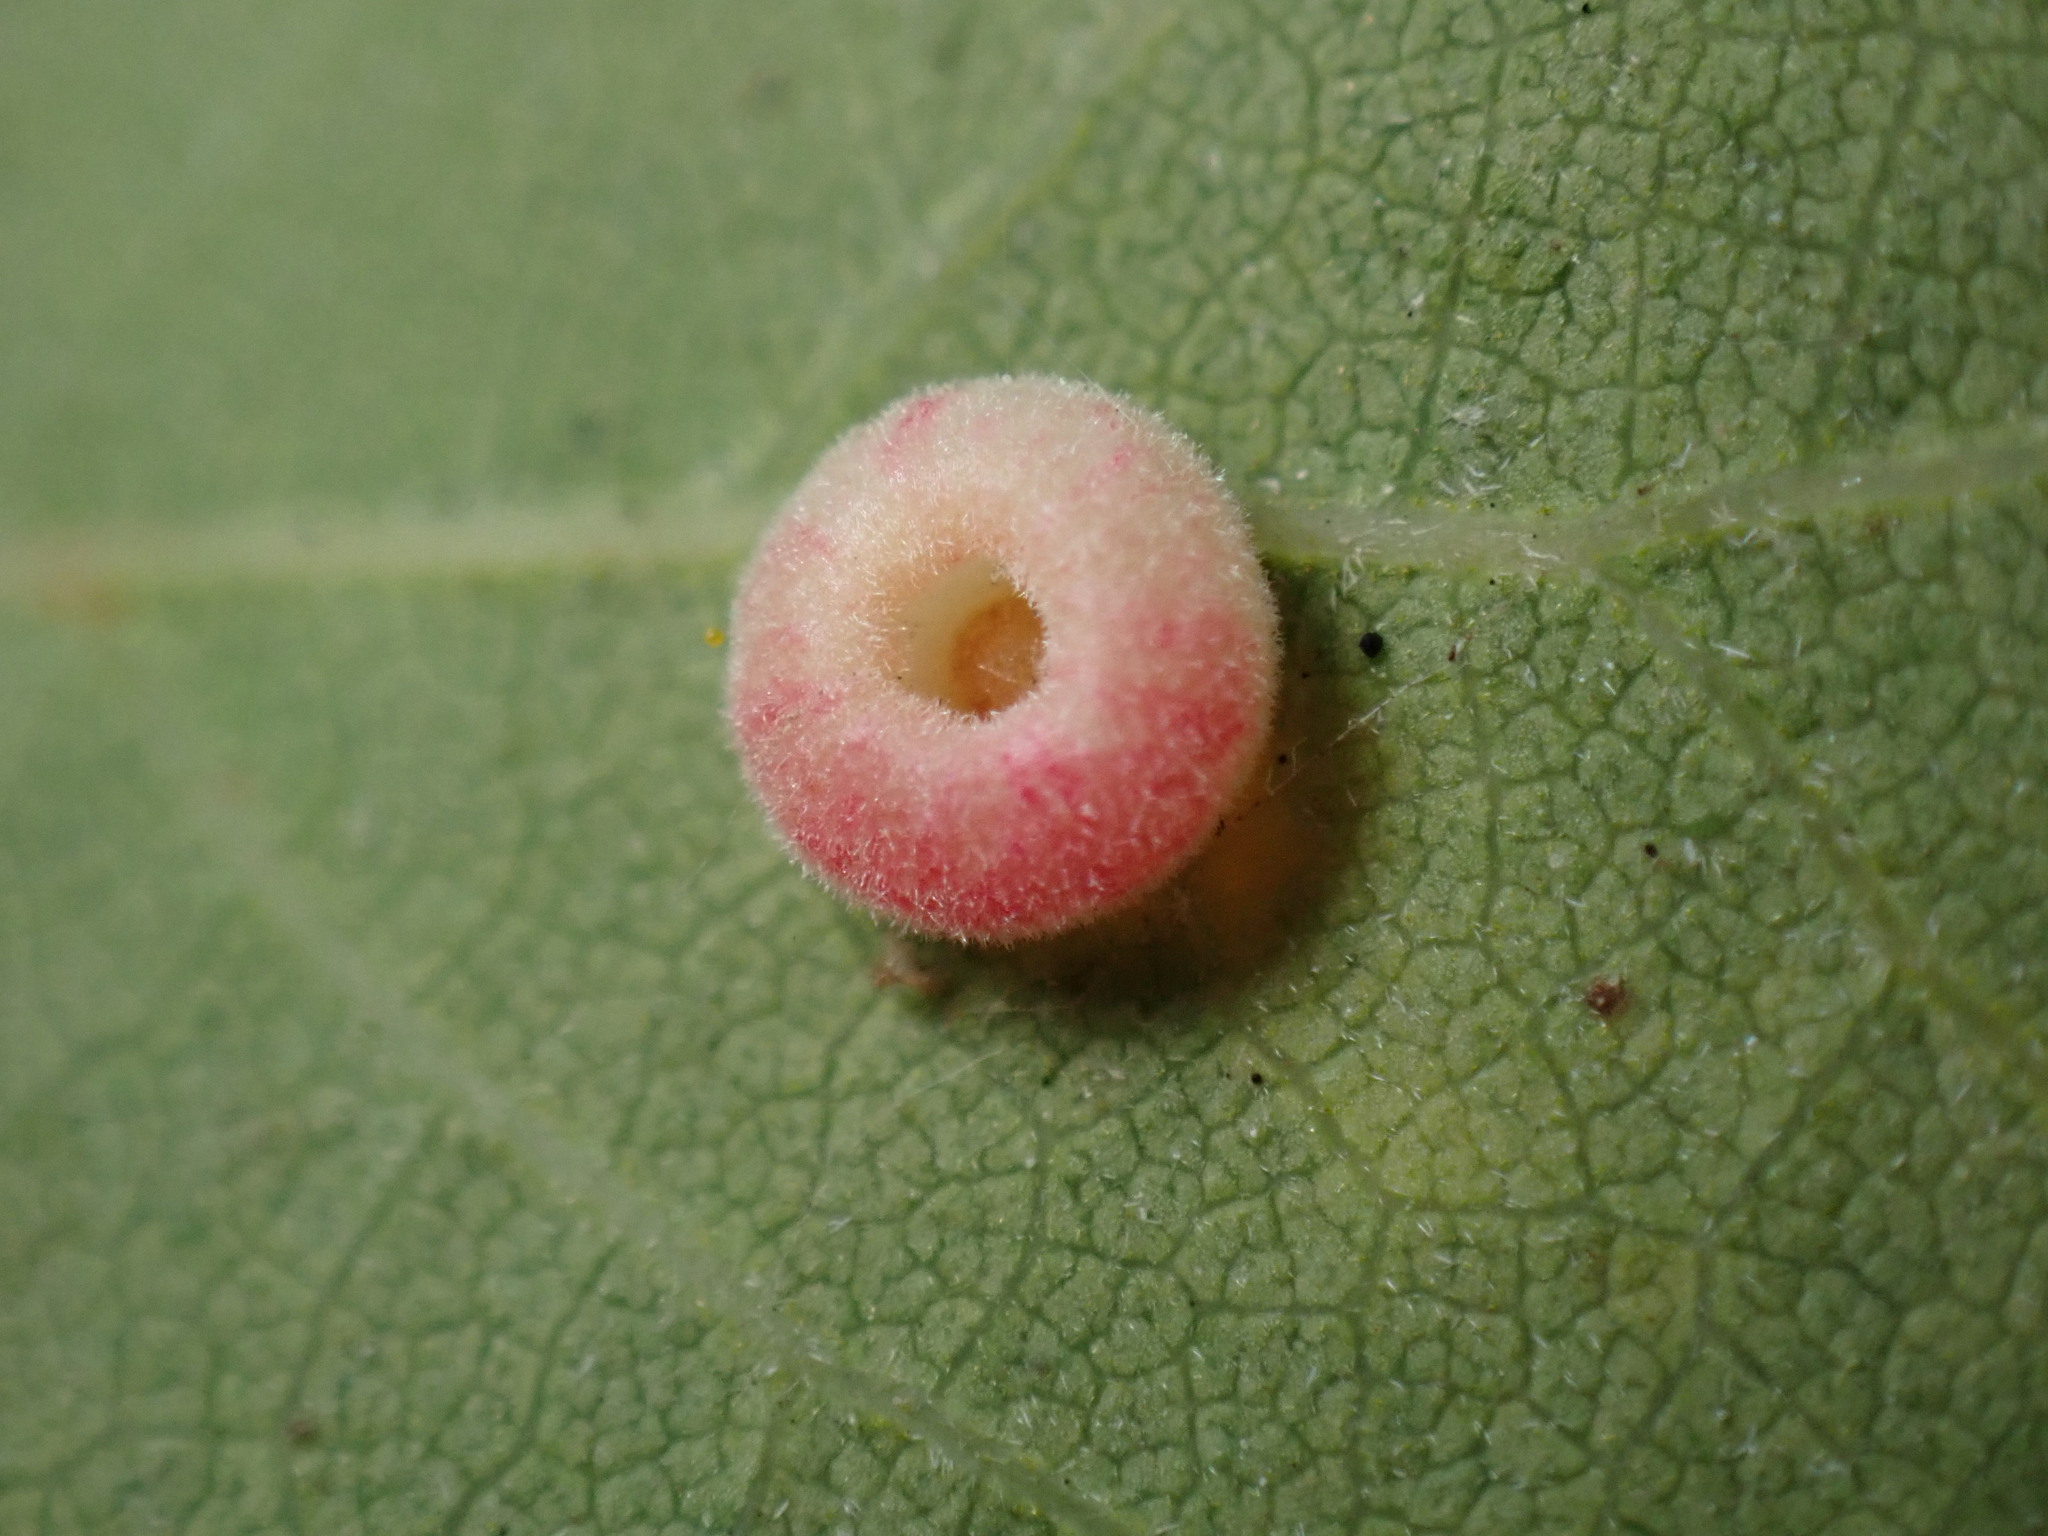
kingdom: Animalia
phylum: Arthropoda
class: Insecta
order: Hymenoptera
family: Cynipidae
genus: Andricus
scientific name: Andricus
